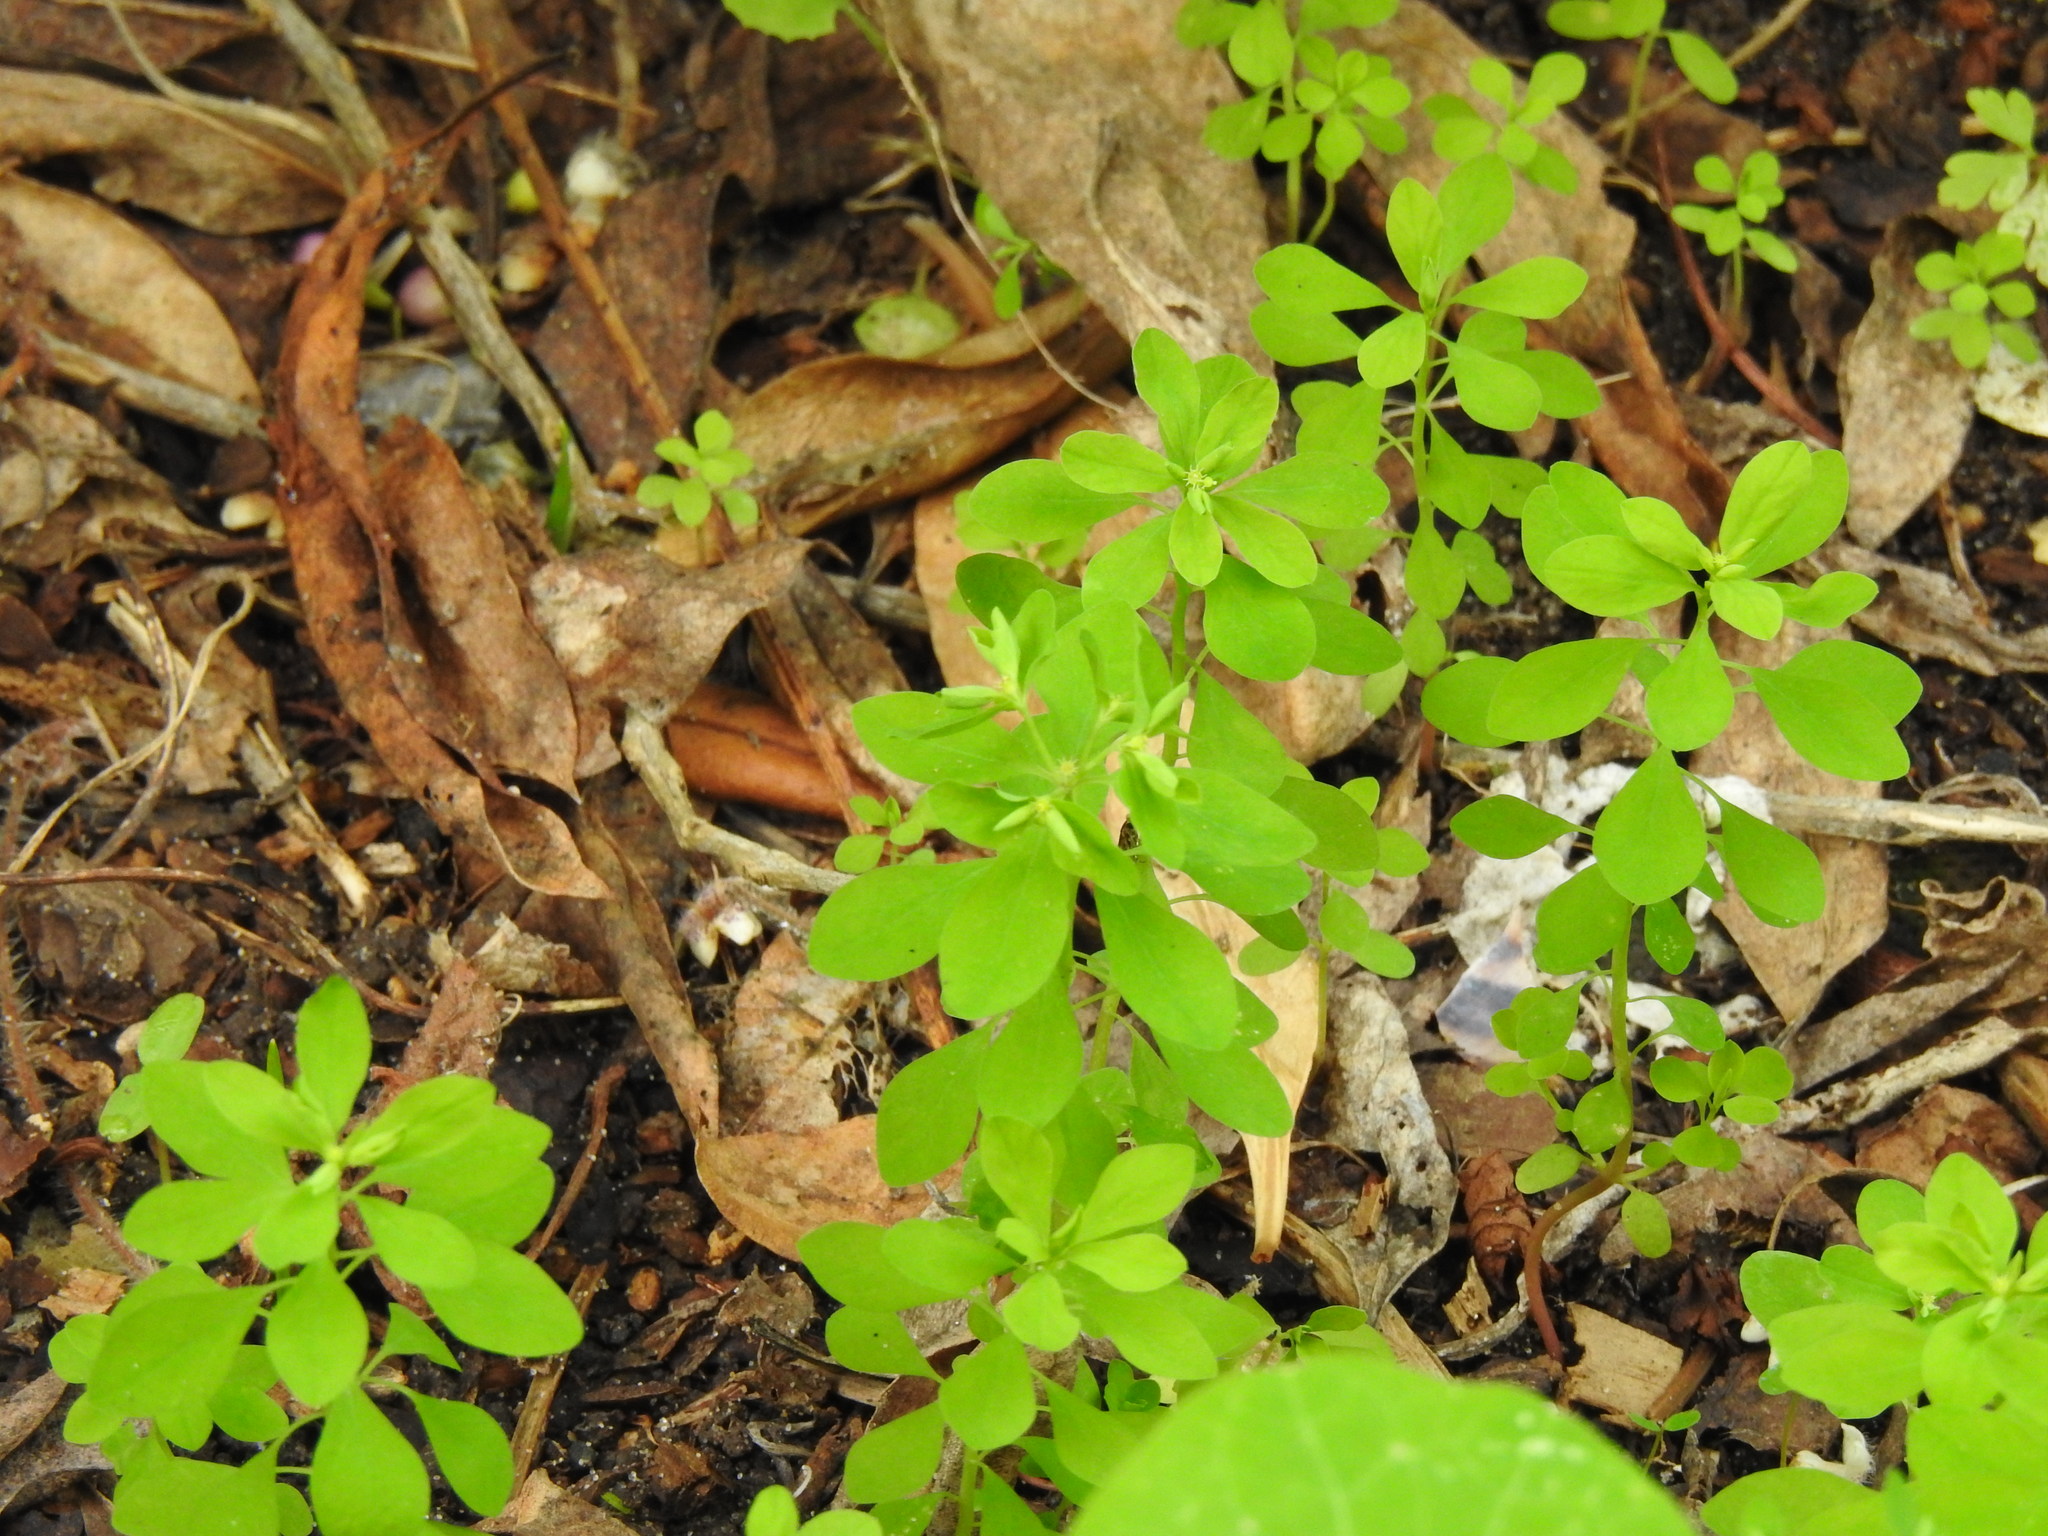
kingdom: Plantae
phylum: Tracheophyta
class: Magnoliopsida
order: Malpighiales
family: Euphorbiaceae
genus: Euphorbia
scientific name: Euphorbia peplus
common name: Petty spurge
